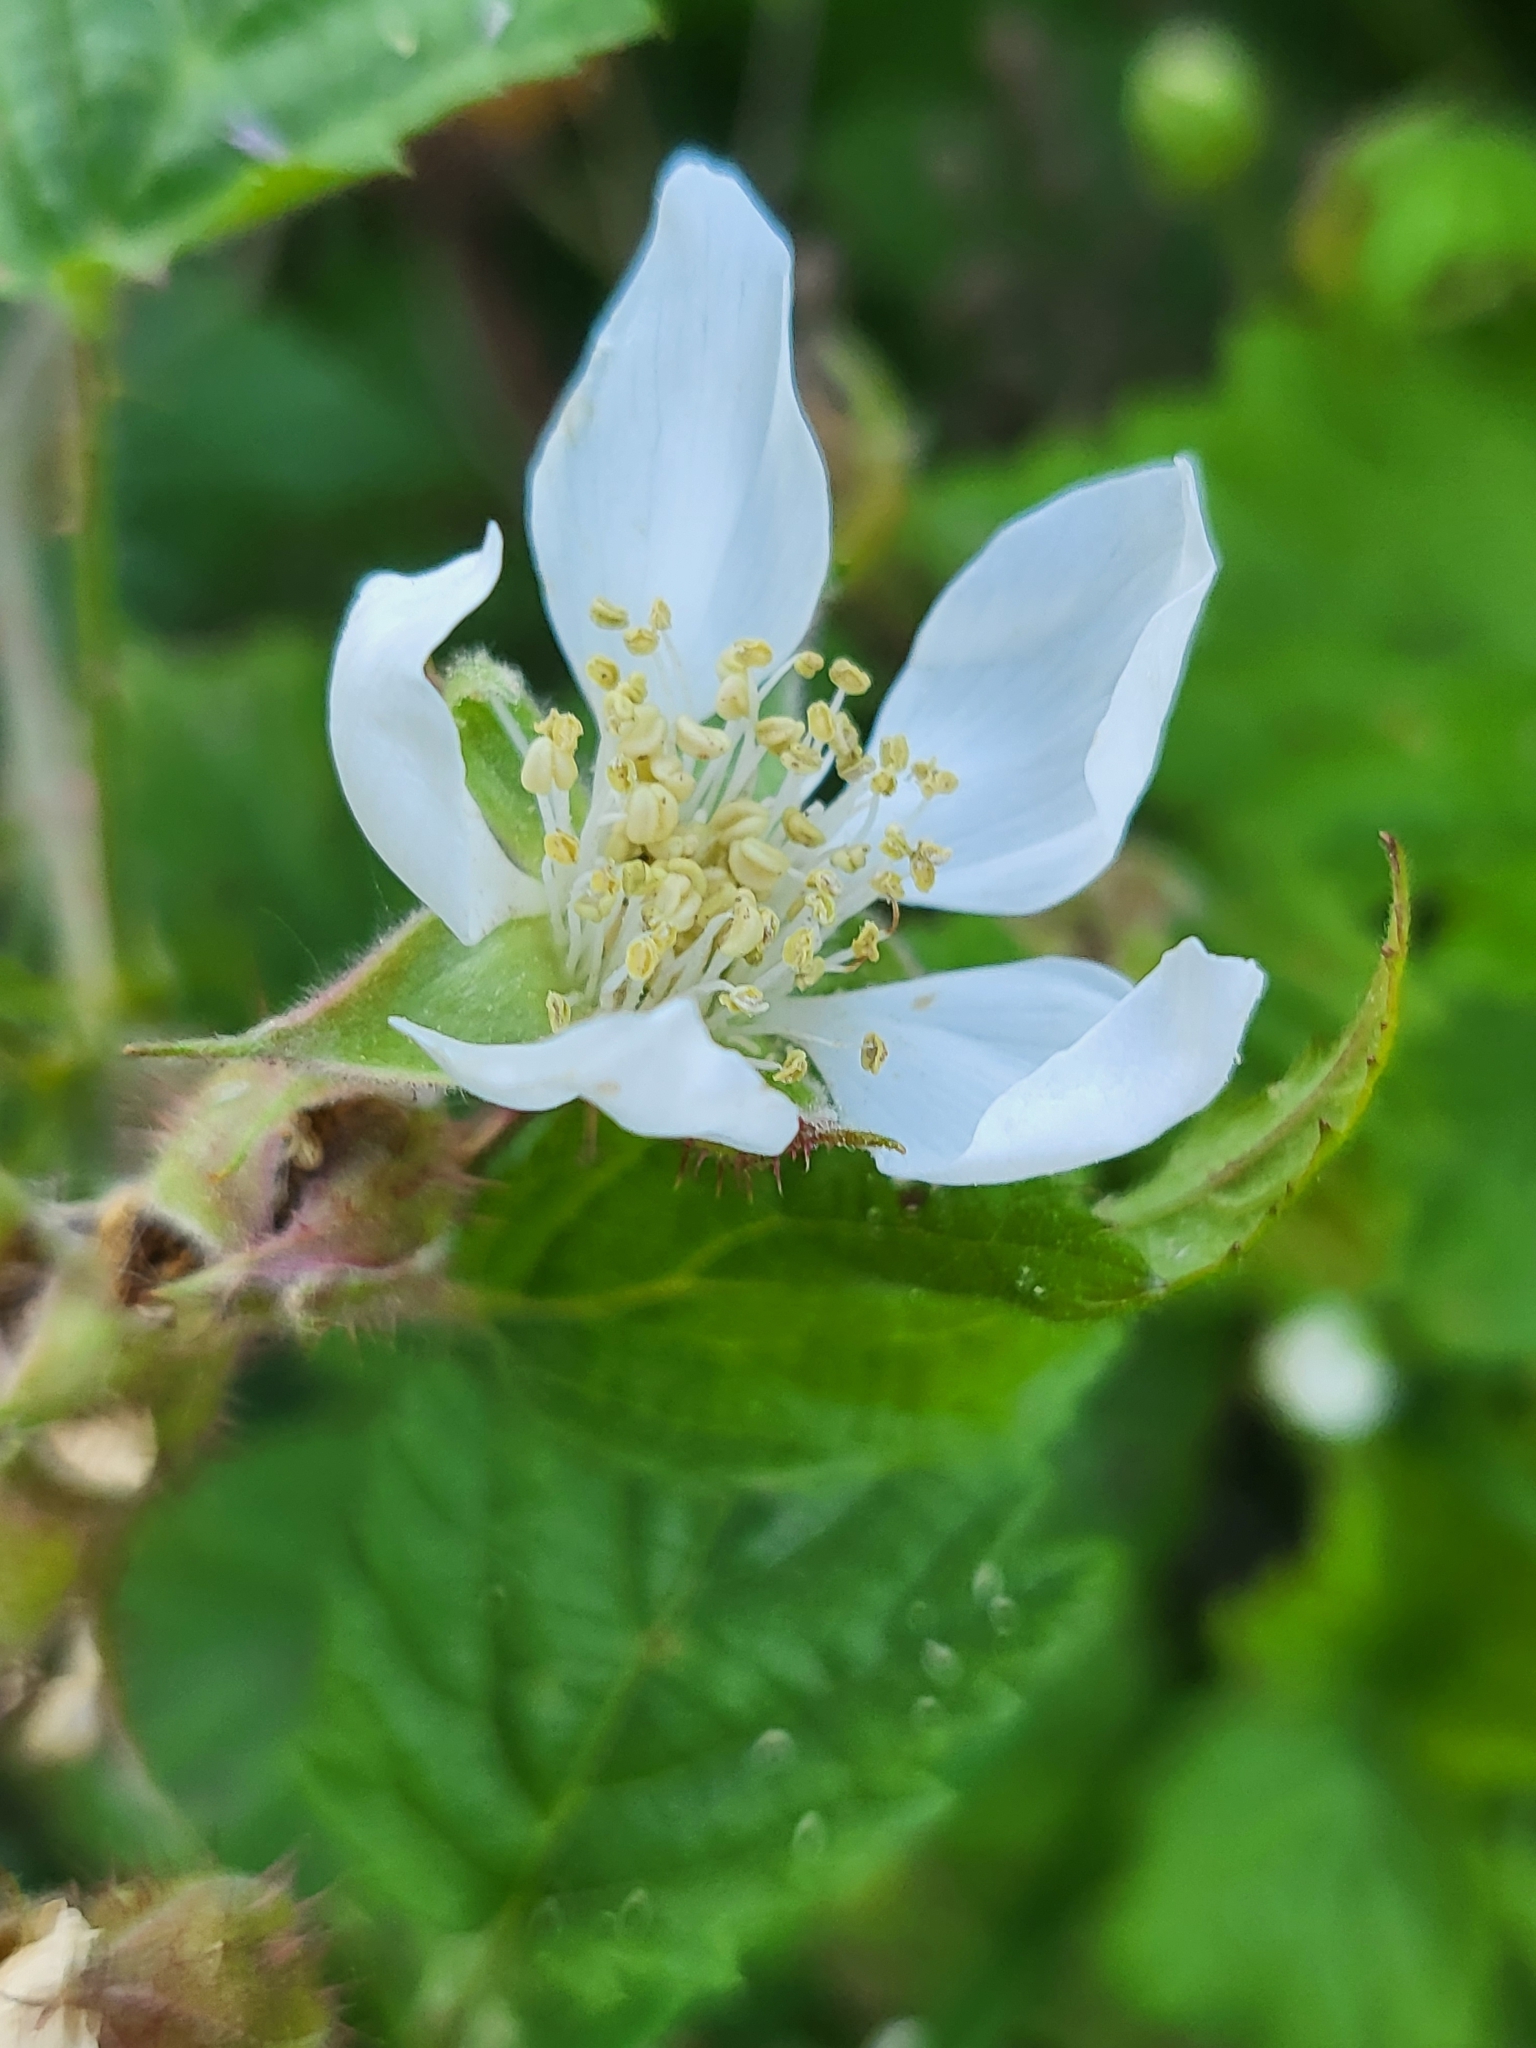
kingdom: Plantae
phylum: Tracheophyta
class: Magnoliopsida
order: Rosales
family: Rosaceae
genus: Rubus
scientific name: Rubus ursinus
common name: Pacific blackberry
